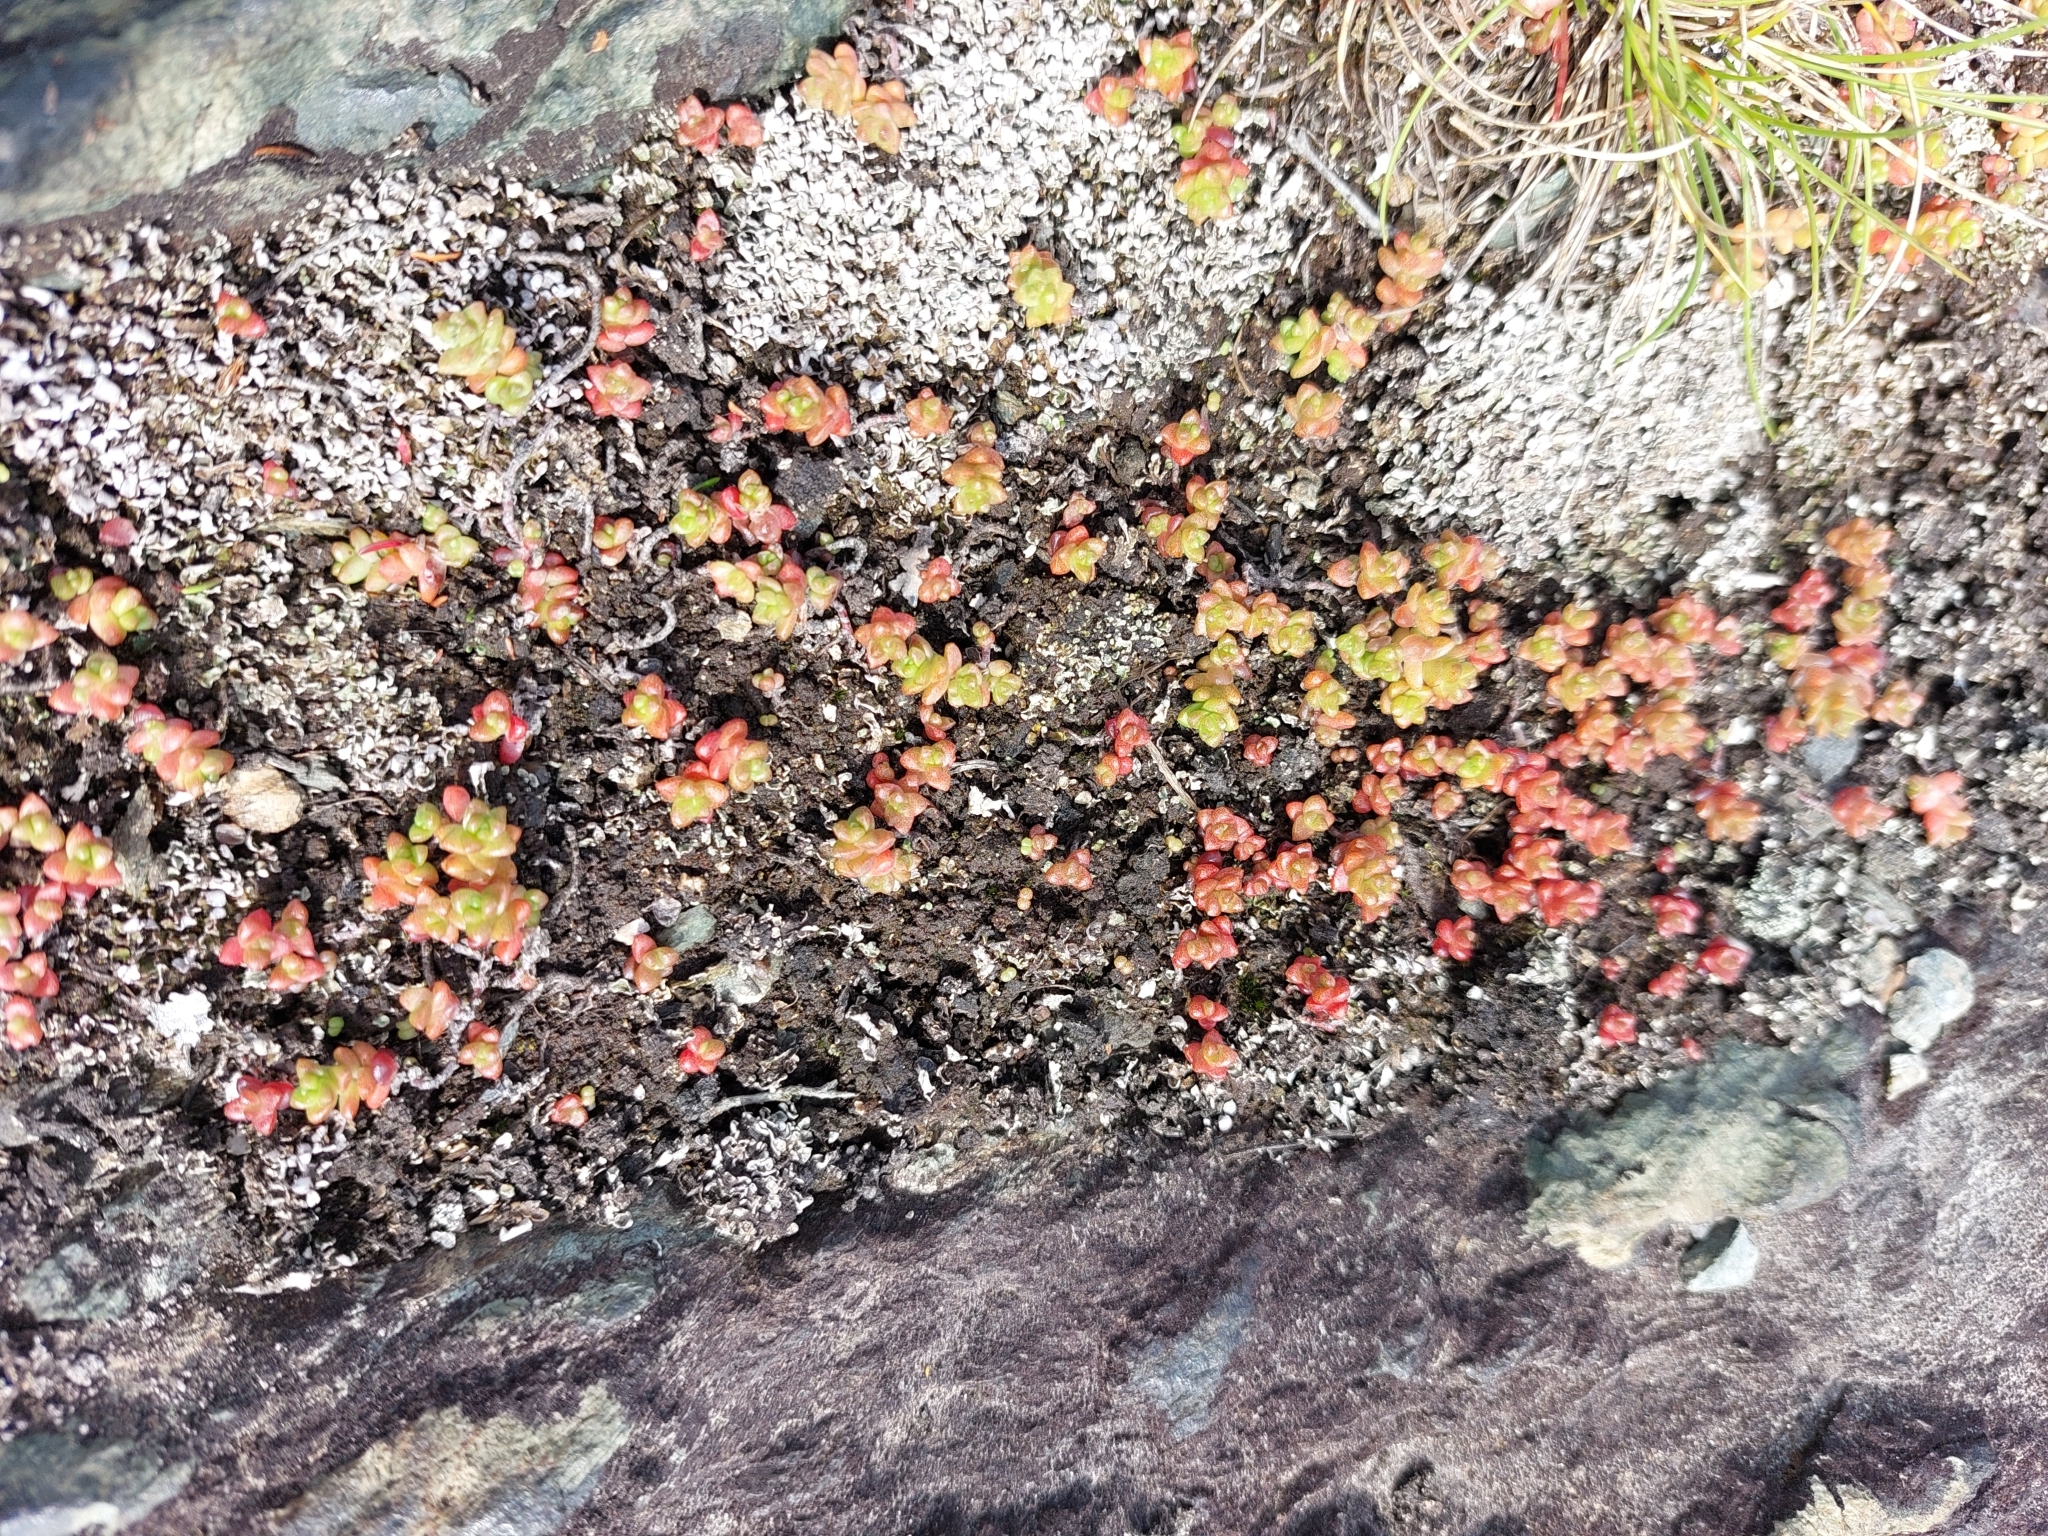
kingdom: Plantae
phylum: Tracheophyta
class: Magnoliopsida
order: Saxifragales
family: Crassulaceae
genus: Sedum
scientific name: Sedum anglicum
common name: English stonecrop
